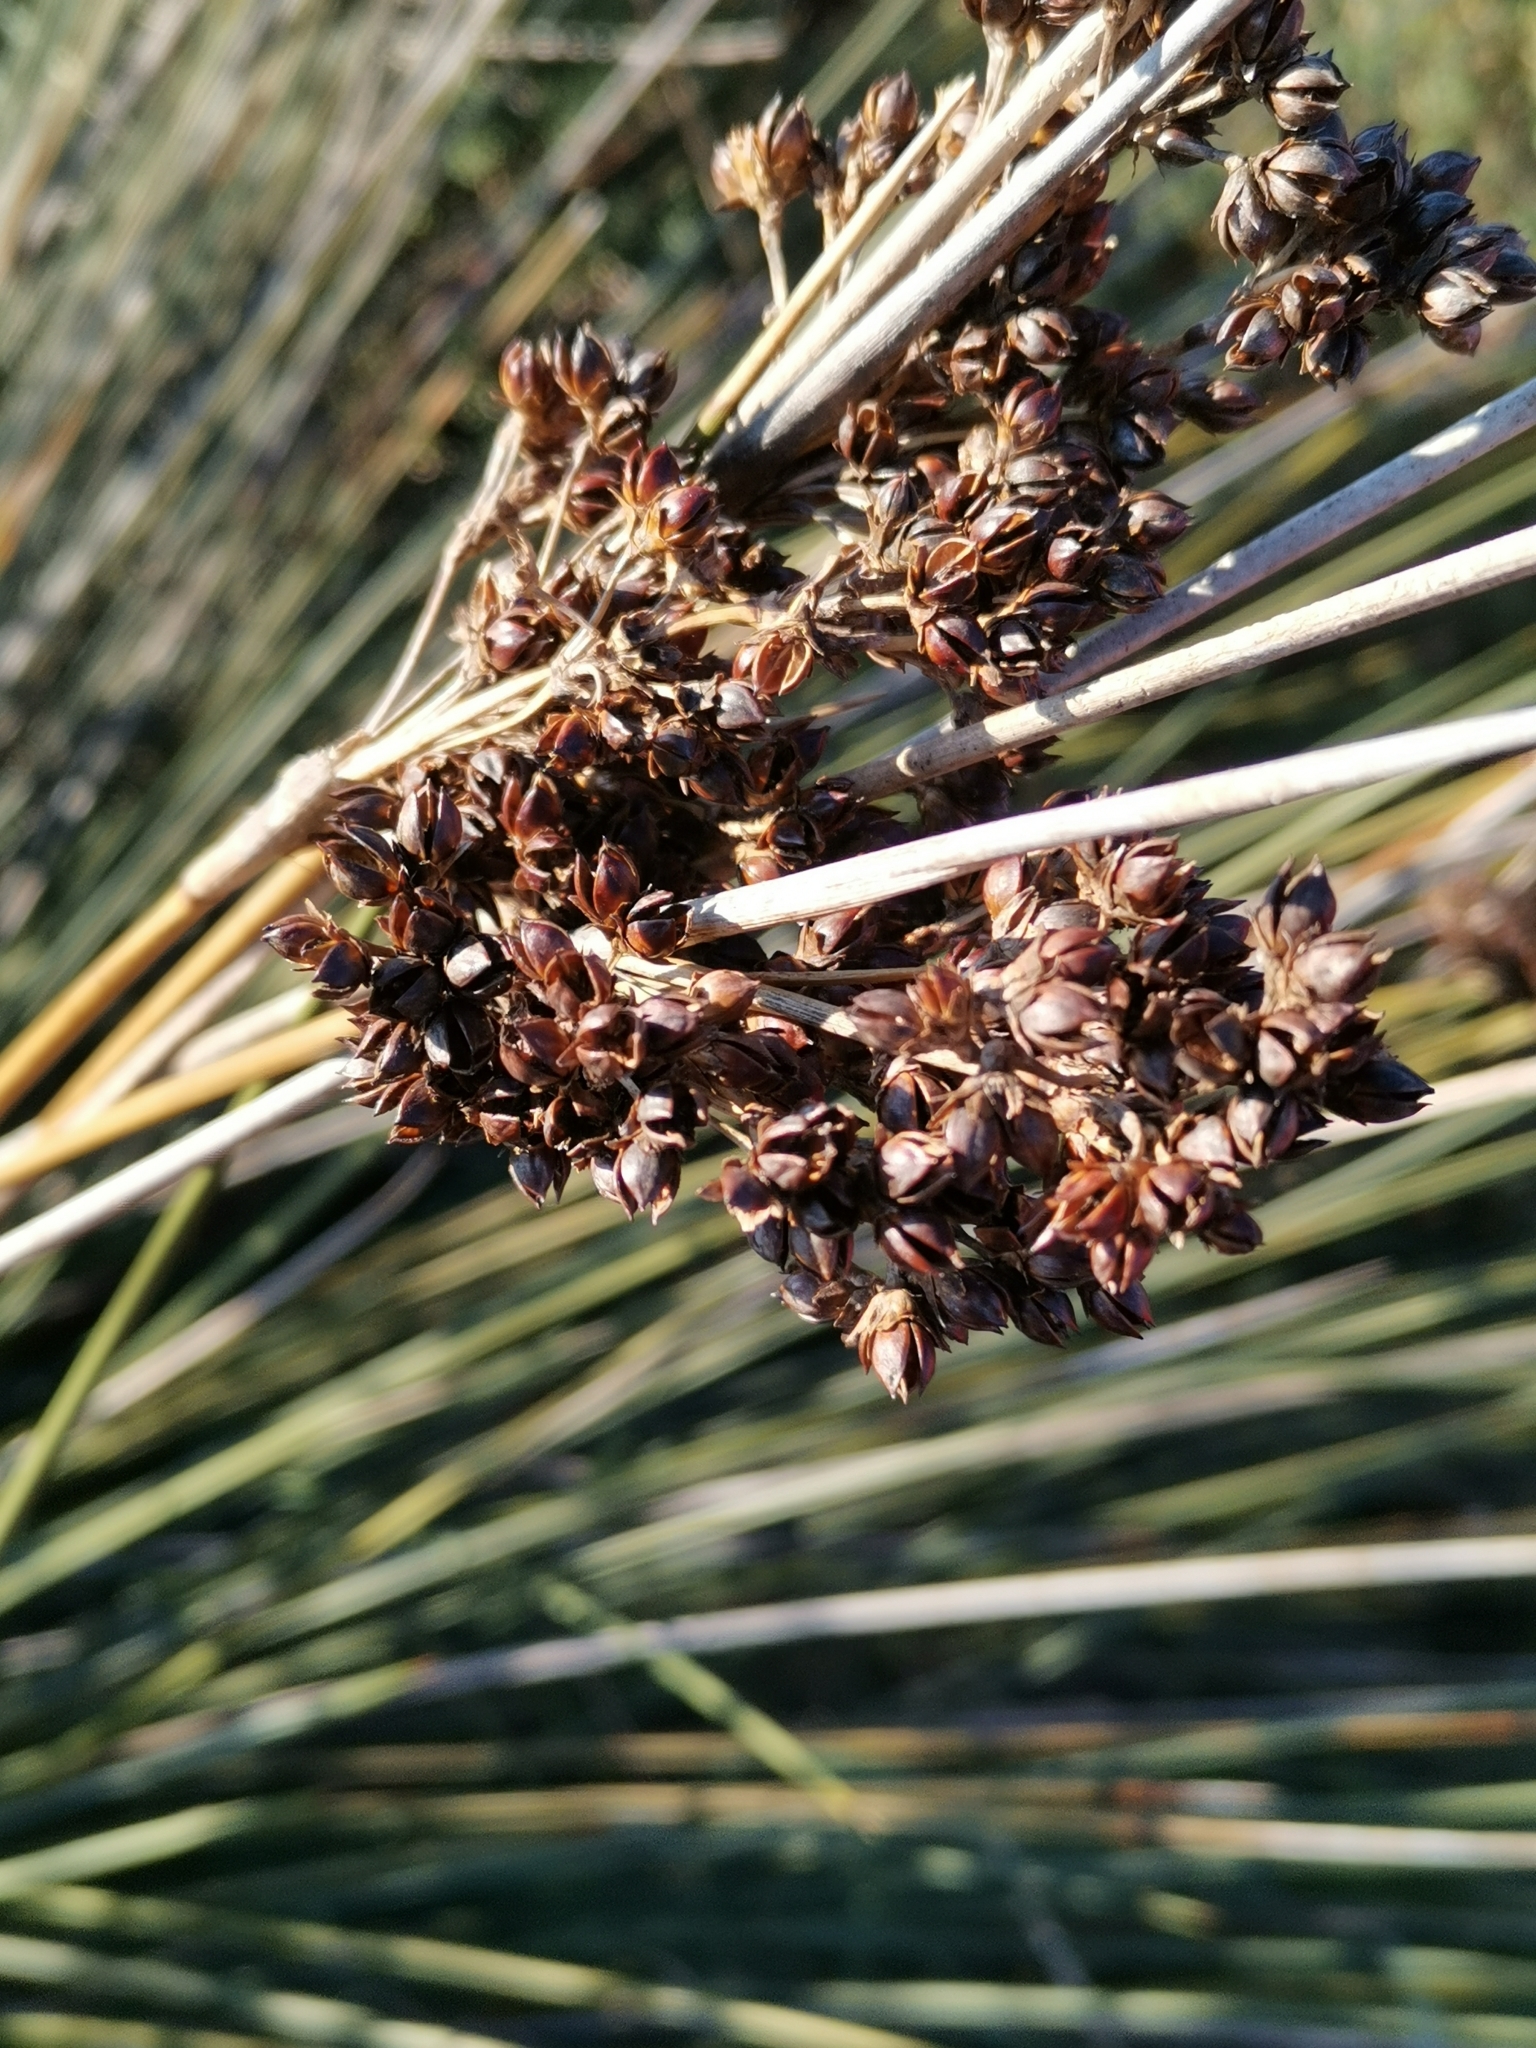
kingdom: Plantae
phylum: Tracheophyta
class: Liliopsida
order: Poales
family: Juncaceae
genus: Juncus
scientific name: Juncus acutus
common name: Sharp rush
